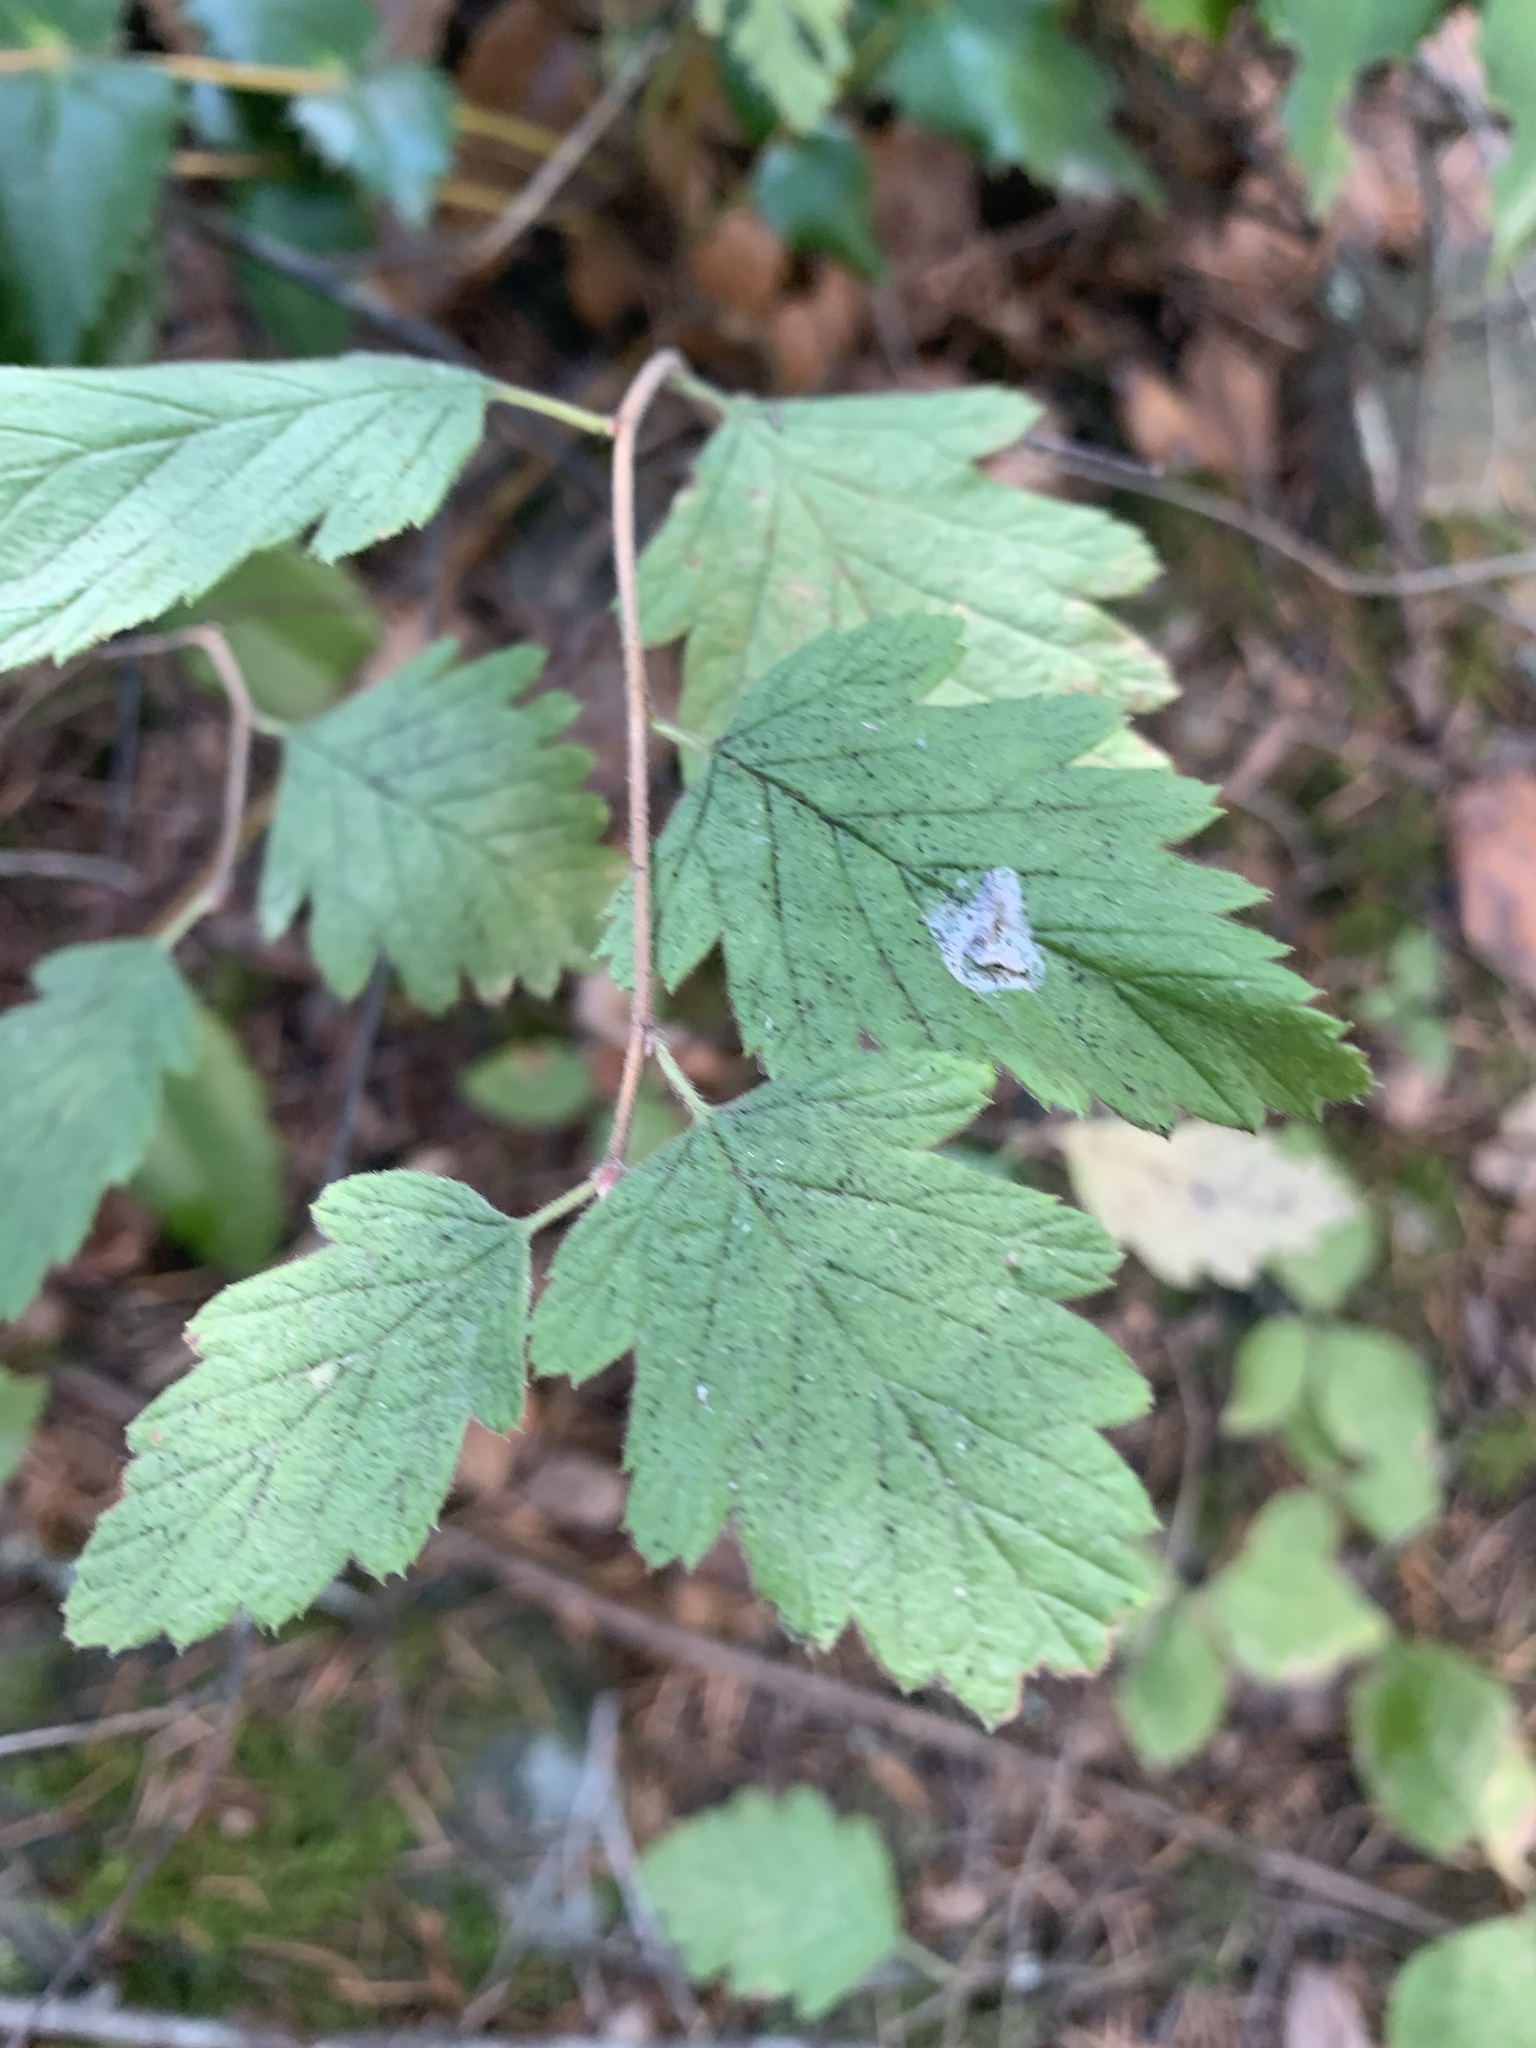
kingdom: Plantae
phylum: Tracheophyta
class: Magnoliopsida
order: Rosales
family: Rosaceae
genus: Holodiscus
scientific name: Holodiscus discolor
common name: Oceanspray
